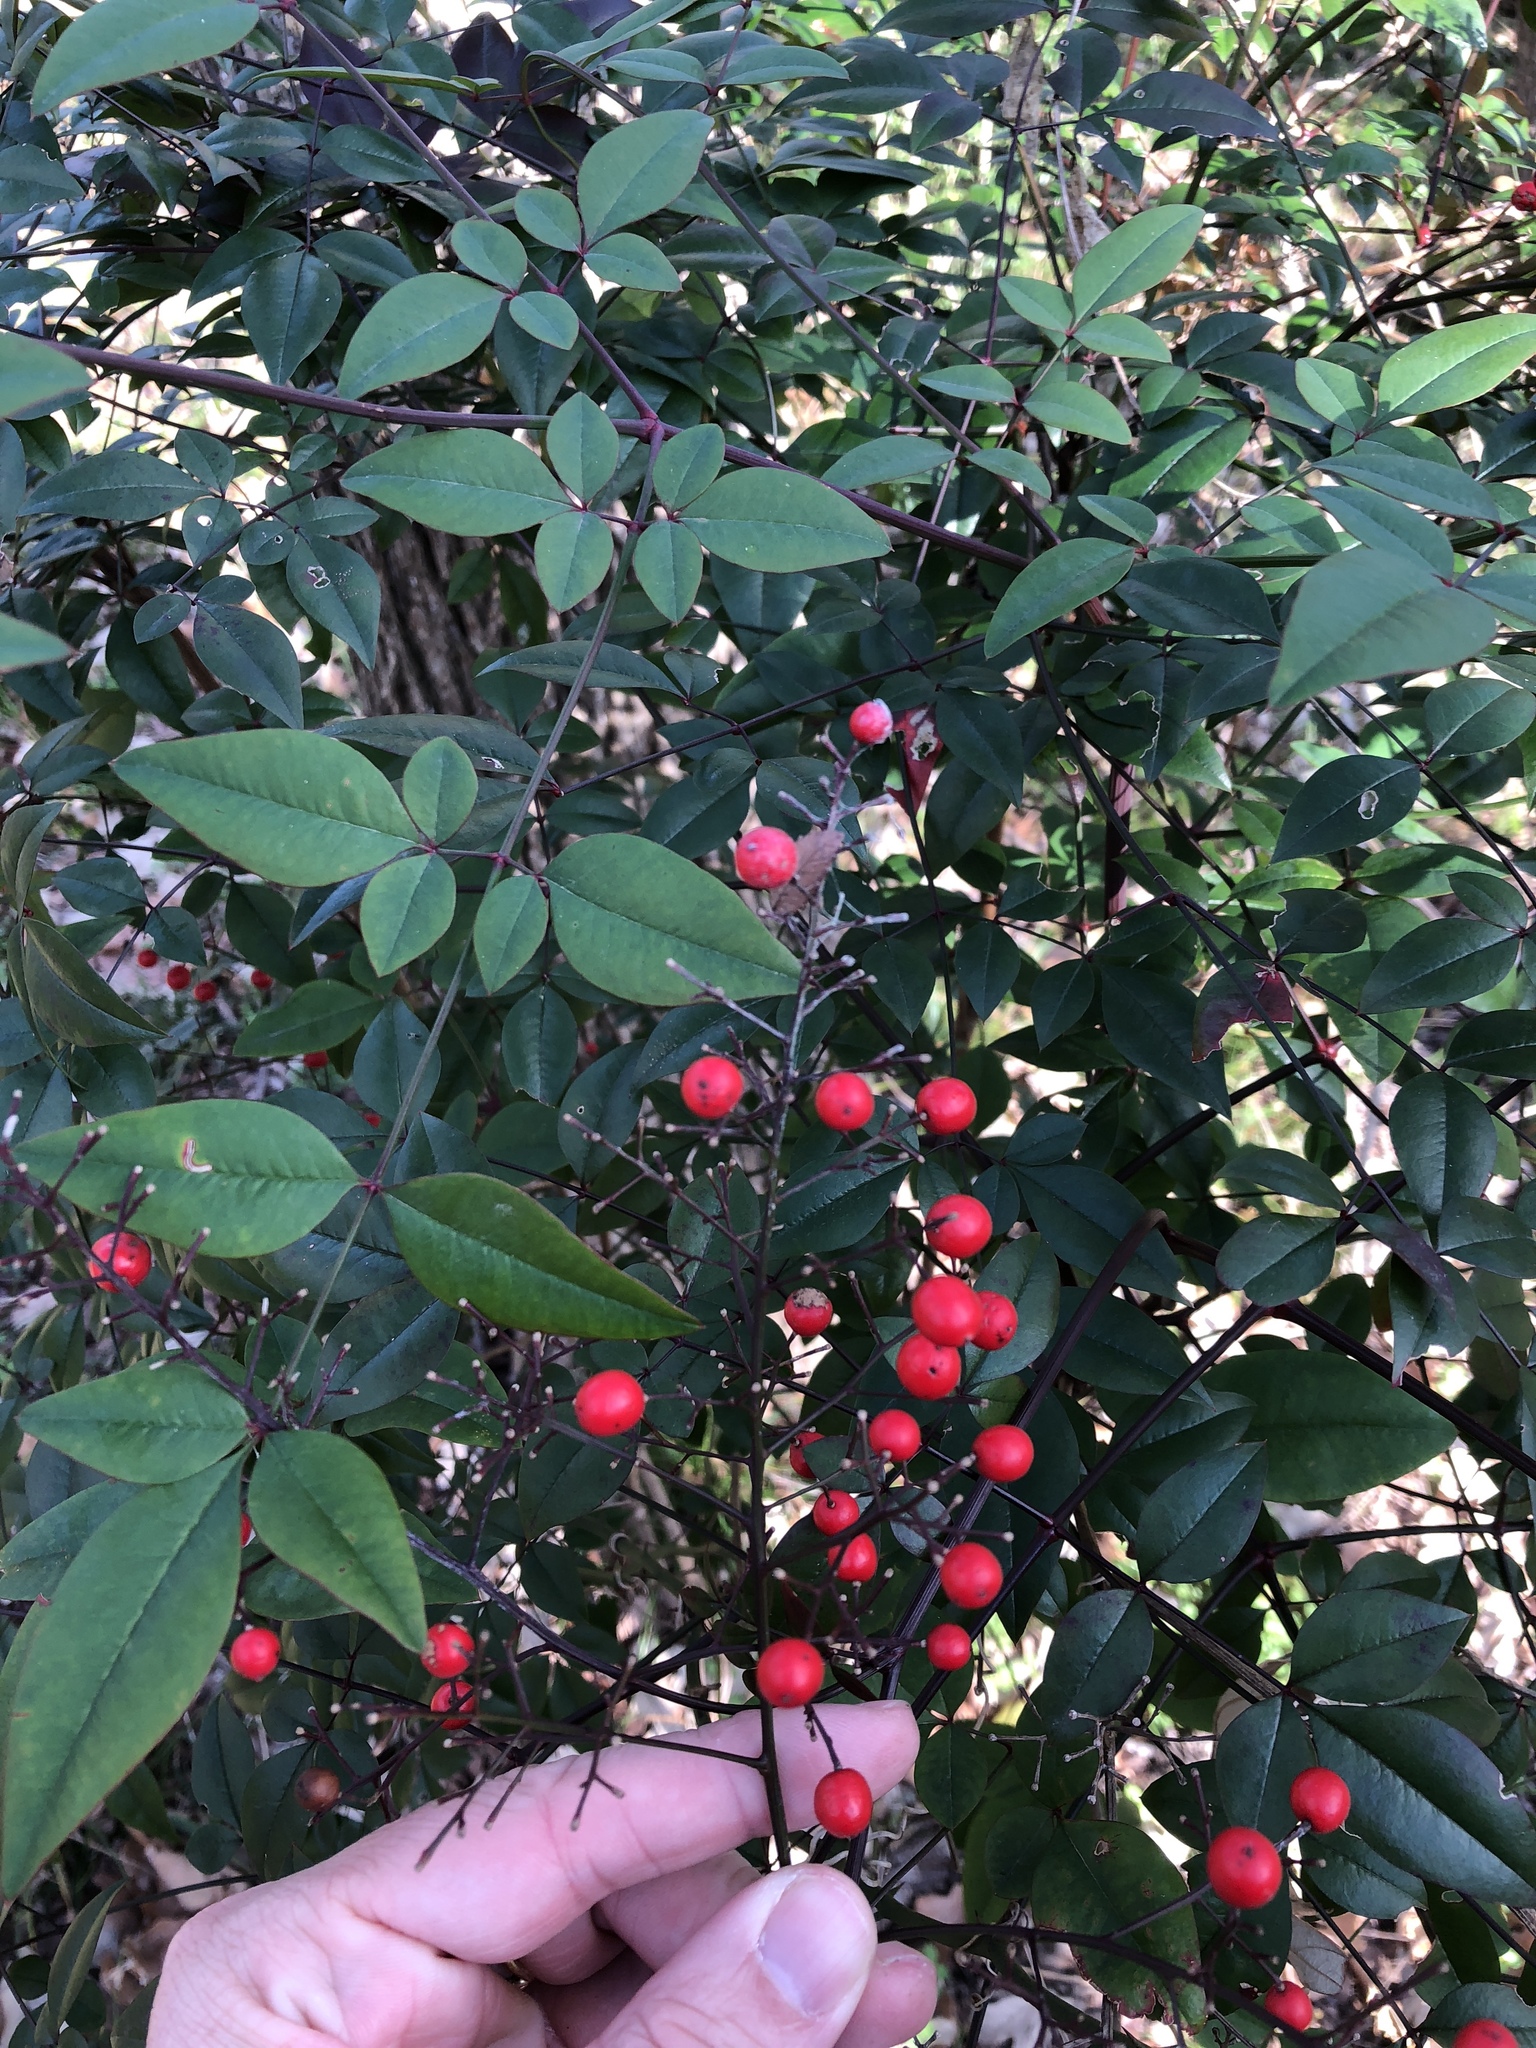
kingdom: Plantae
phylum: Tracheophyta
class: Magnoliopsida
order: Ranunculales
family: Berberidaceae
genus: Nandina
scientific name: Nandina domestica
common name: Sacred bamboo
